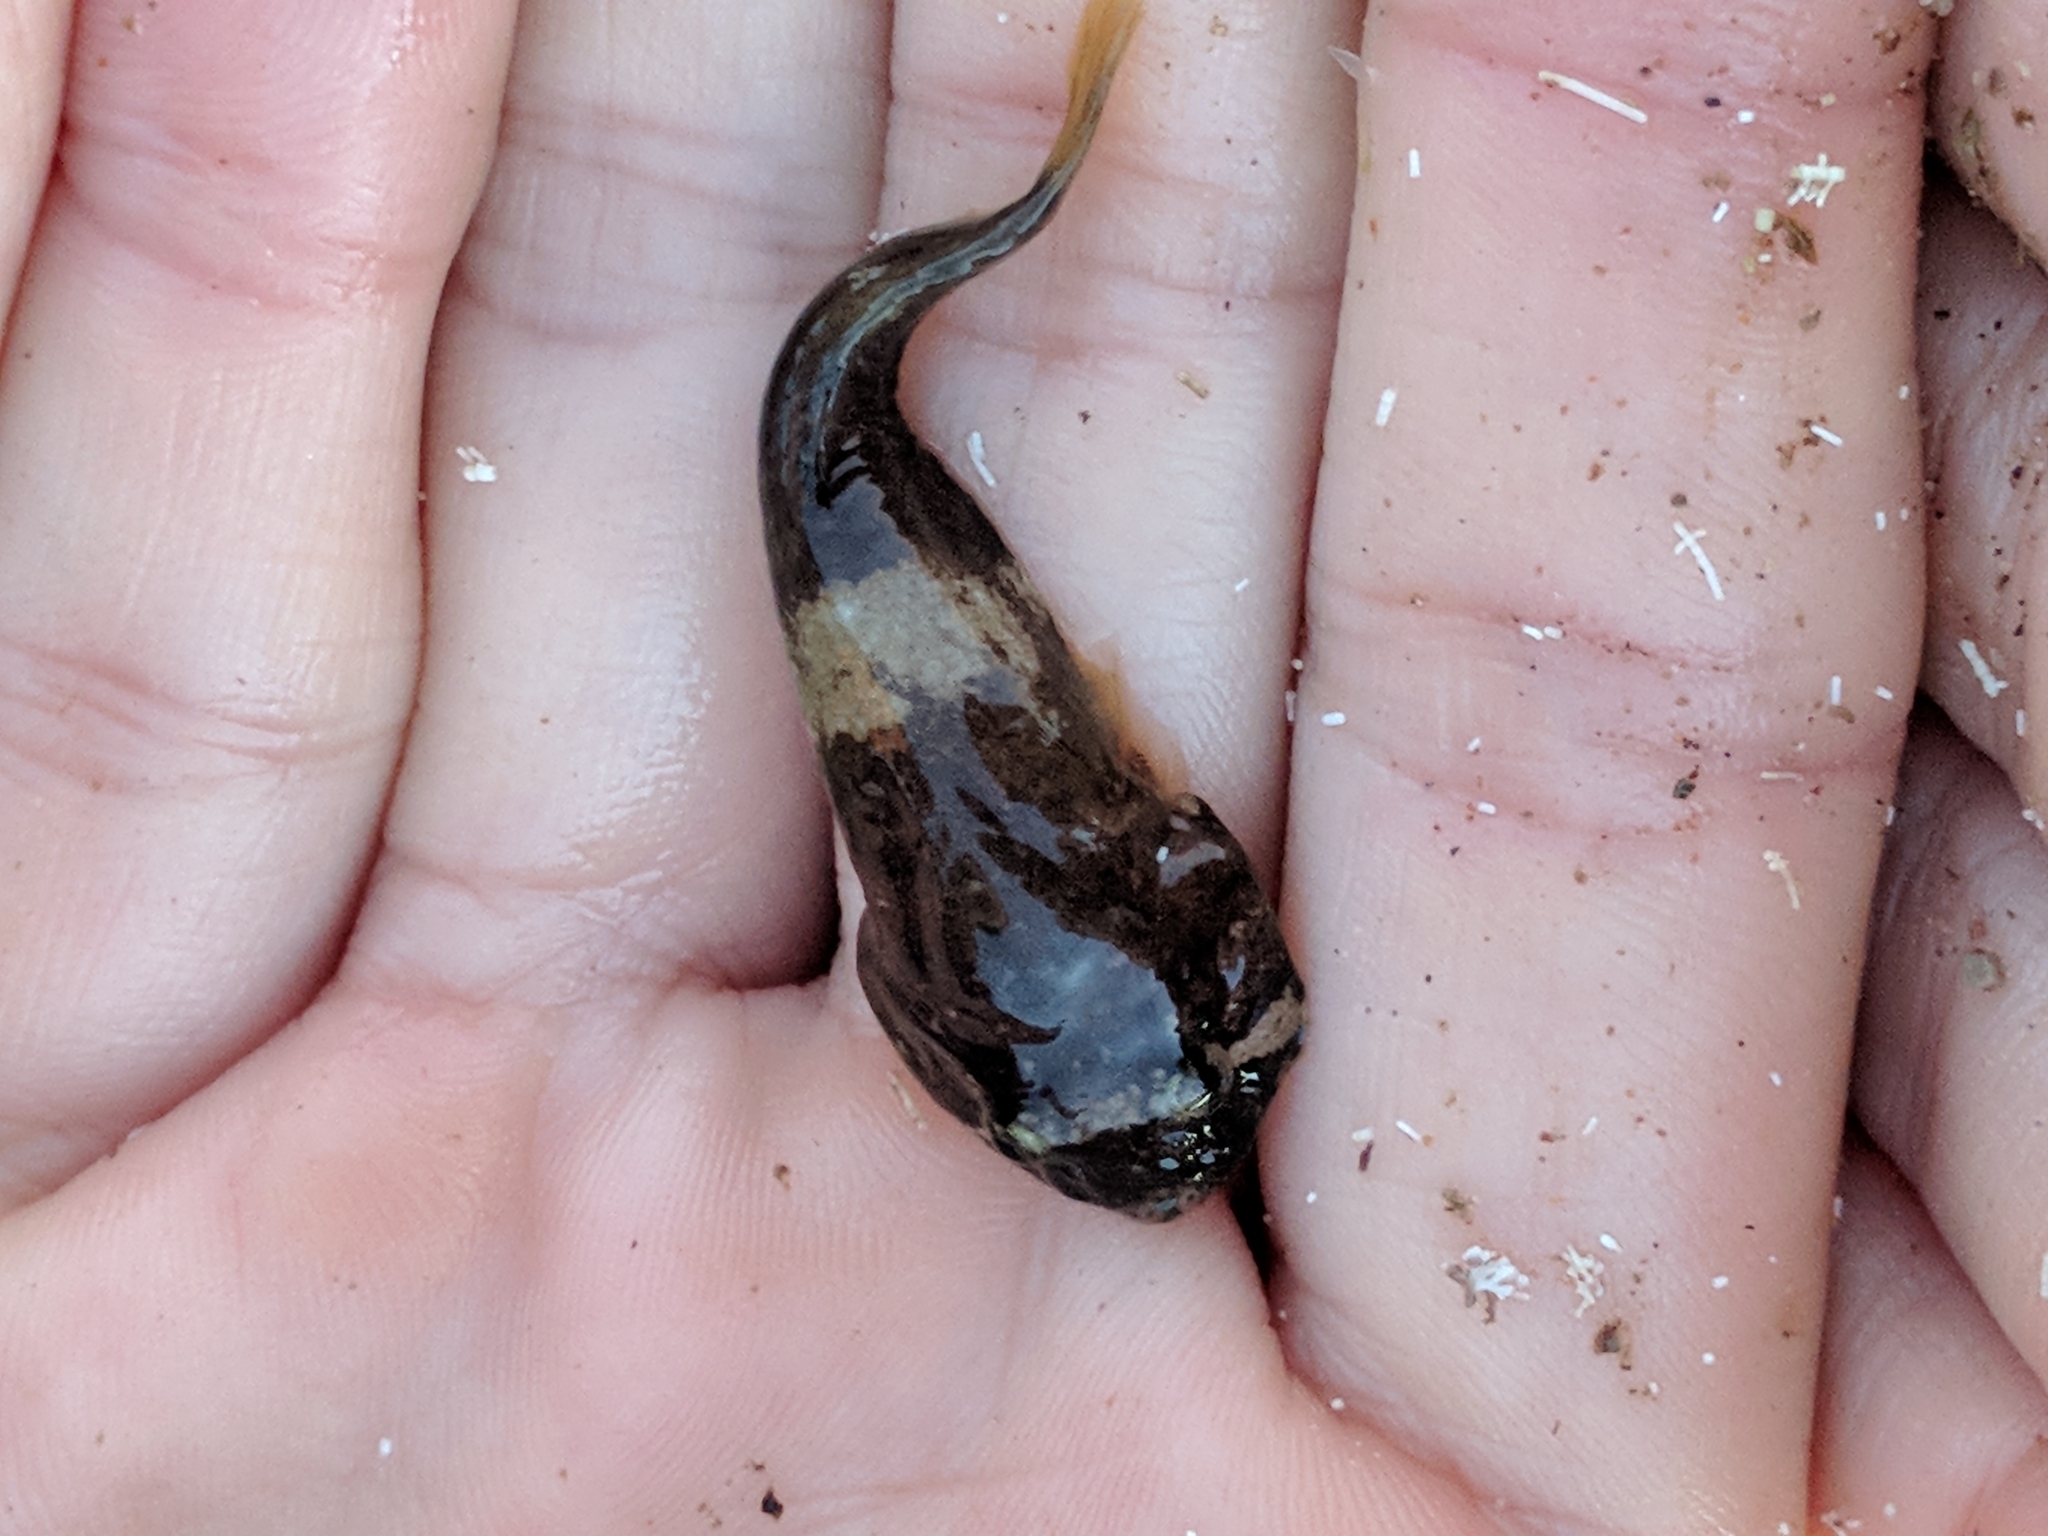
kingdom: Animalia
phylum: Chordata
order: Gobiesociformes
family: Gobiesocidae
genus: Gobiesox
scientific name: Gobiesox
